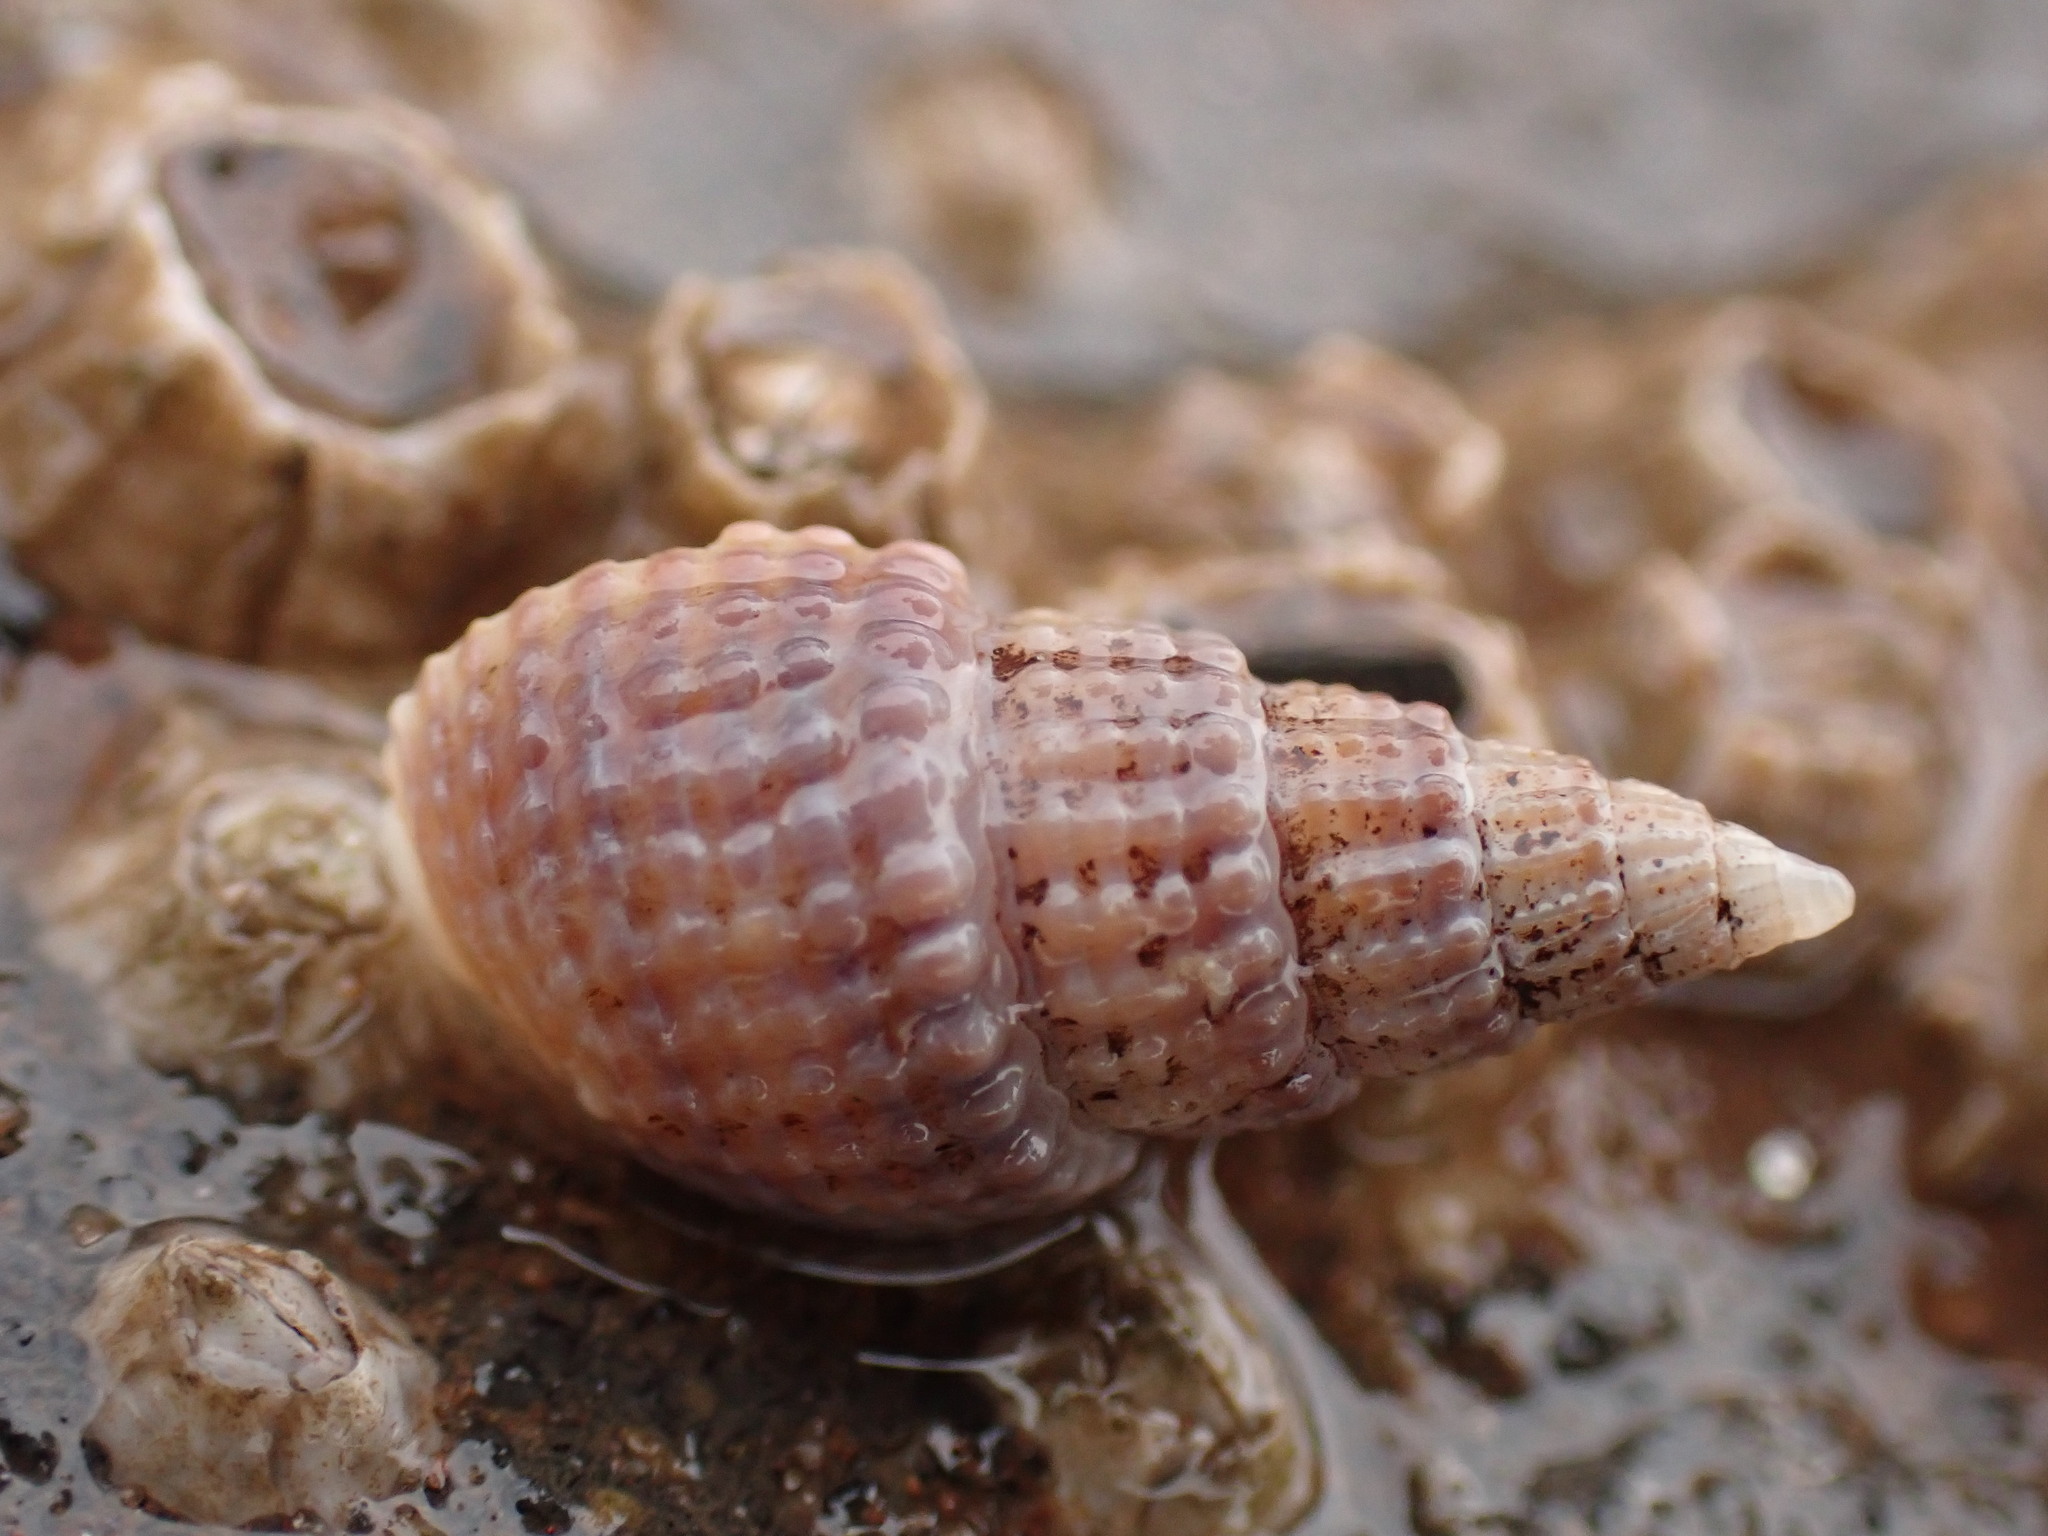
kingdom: Animalia
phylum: Mollusca
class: Gastropoda
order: Neogastropoda
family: Nassariidae
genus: Ilyanassa
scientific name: Ilyanassa trivittata
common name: Three-line mudsnail
